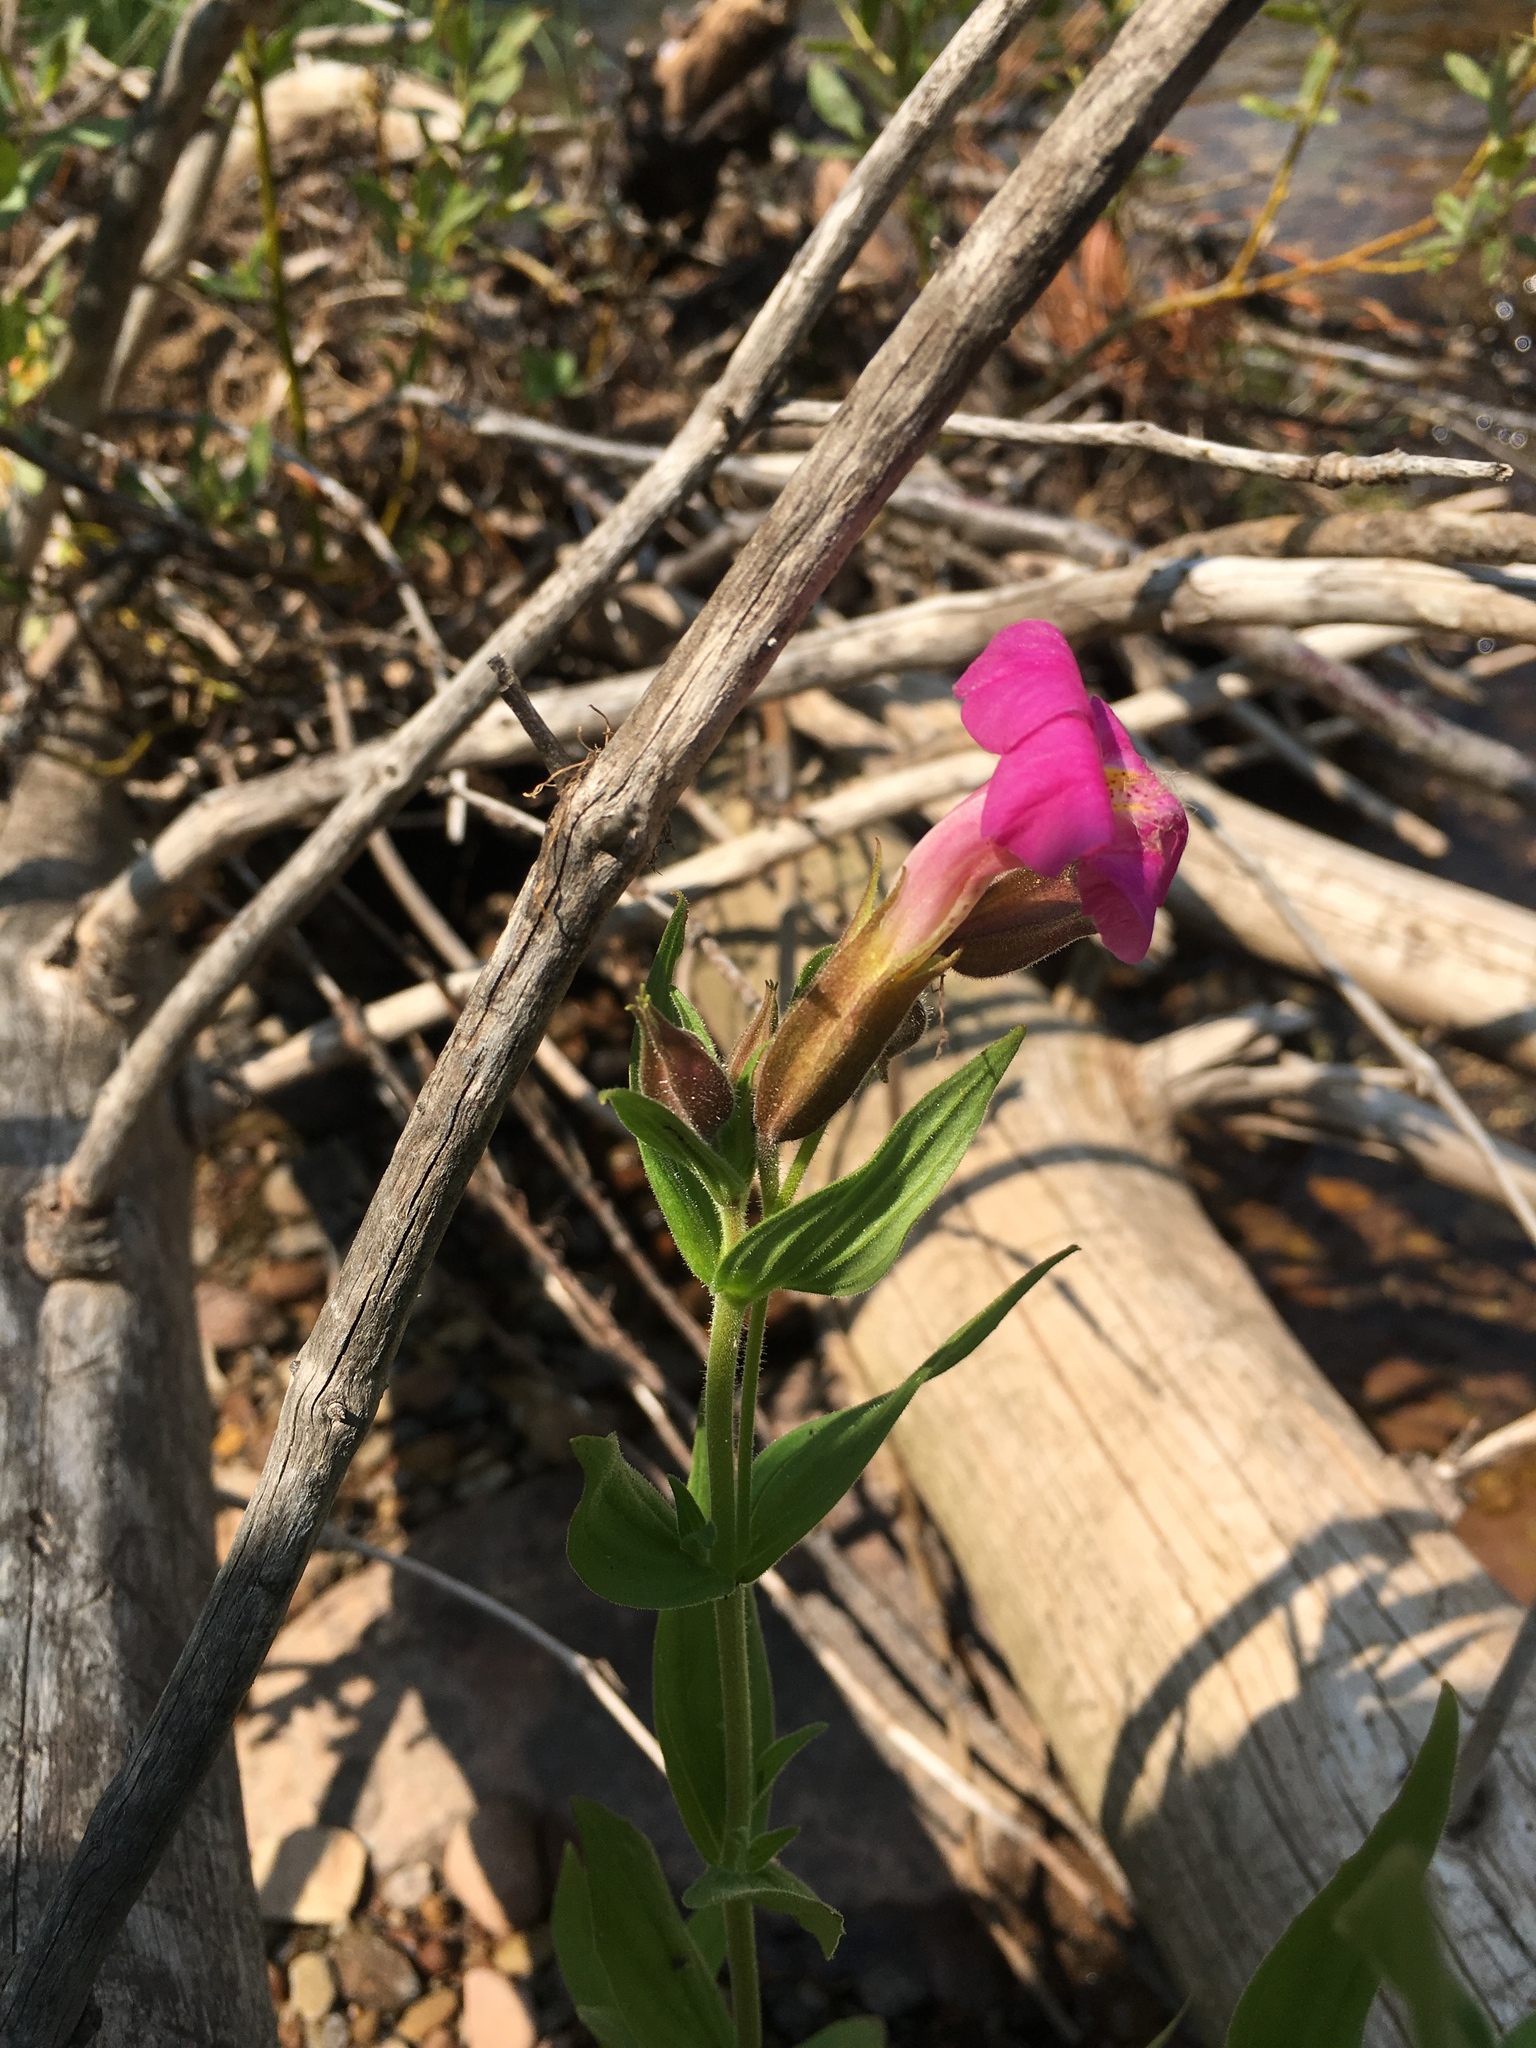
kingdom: Plantae
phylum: Tracheophyta
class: Magnoliopsida
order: Lamiales
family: Phrymaceae
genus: Erythranthe
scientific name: Erythranthe lewisii
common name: Lewis's monkey-flower
